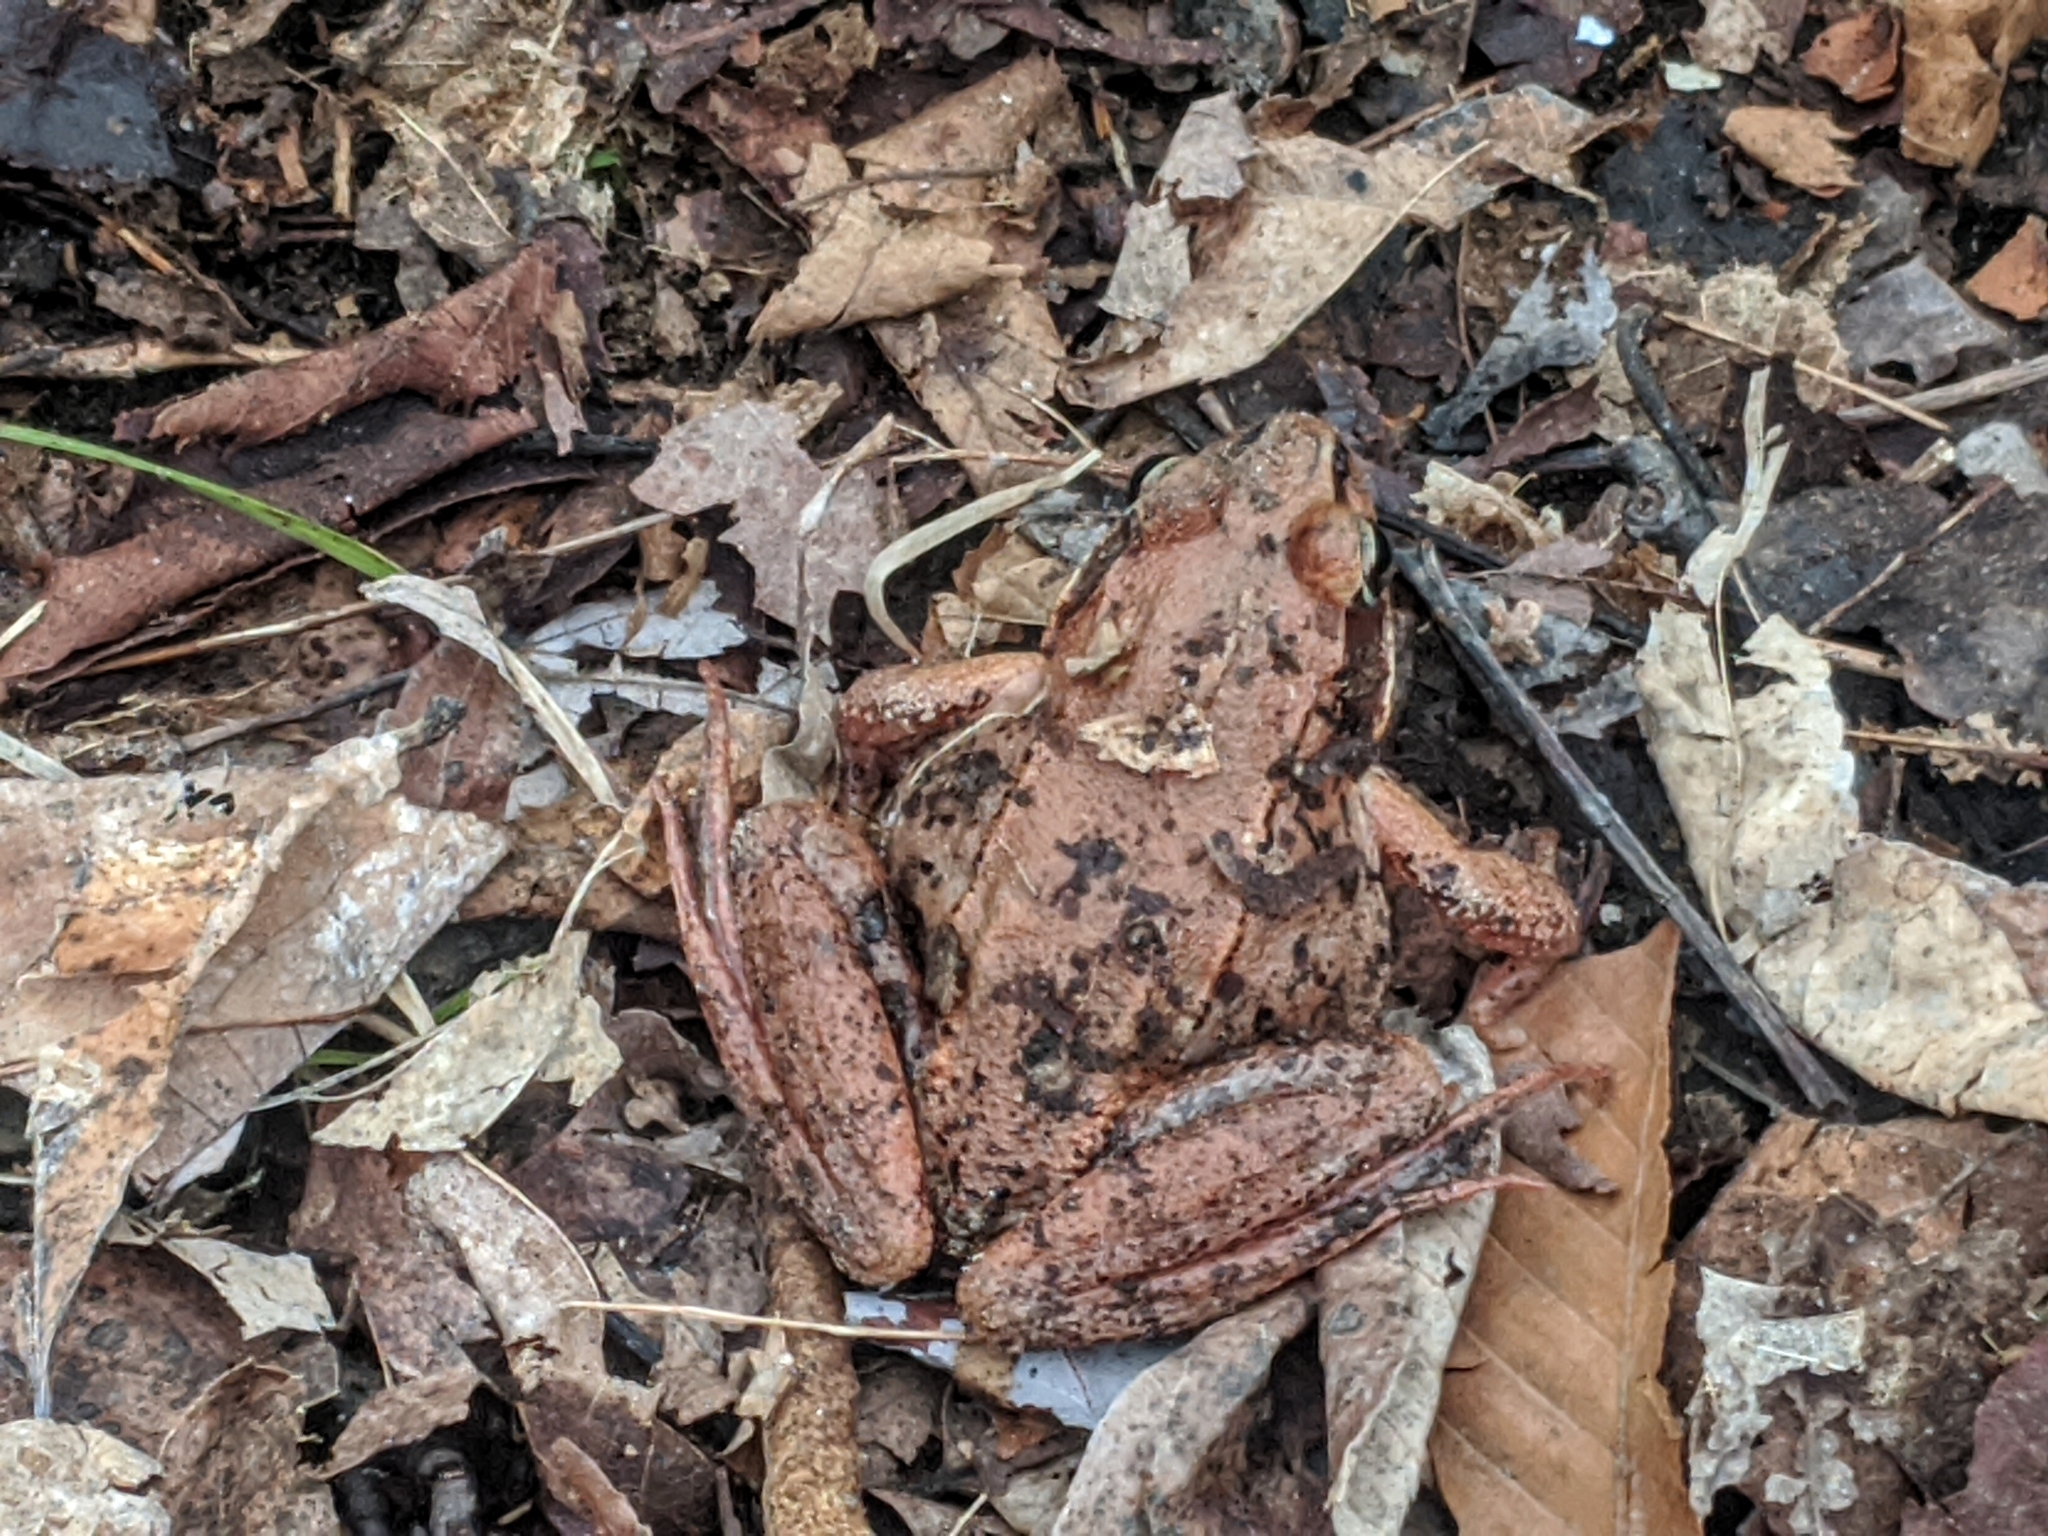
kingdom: Animalia
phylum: Chordata
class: Amphibia
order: Anura
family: Ranidae
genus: Lithobates
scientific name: Lithobates sylvaticus
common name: Wood frog
